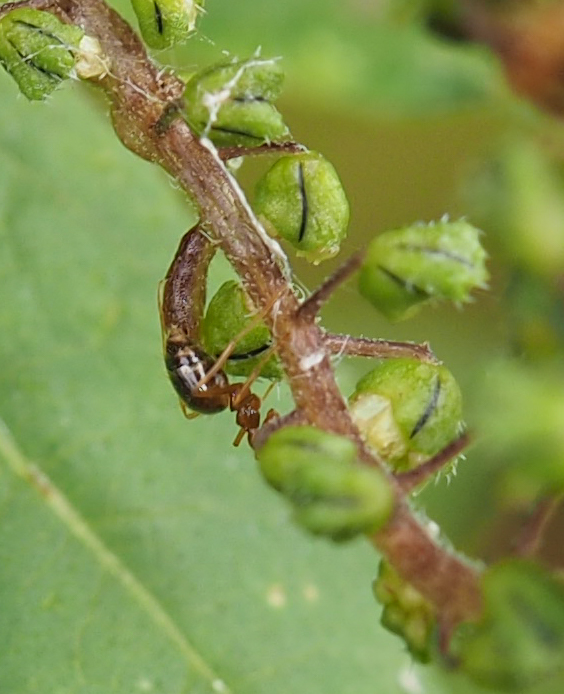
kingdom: Animalia
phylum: Arthropoda
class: Insecta
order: Hymenoptera
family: Formicidae
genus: Prenolepis
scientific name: Prenolepis imparis
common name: Small honey ant
